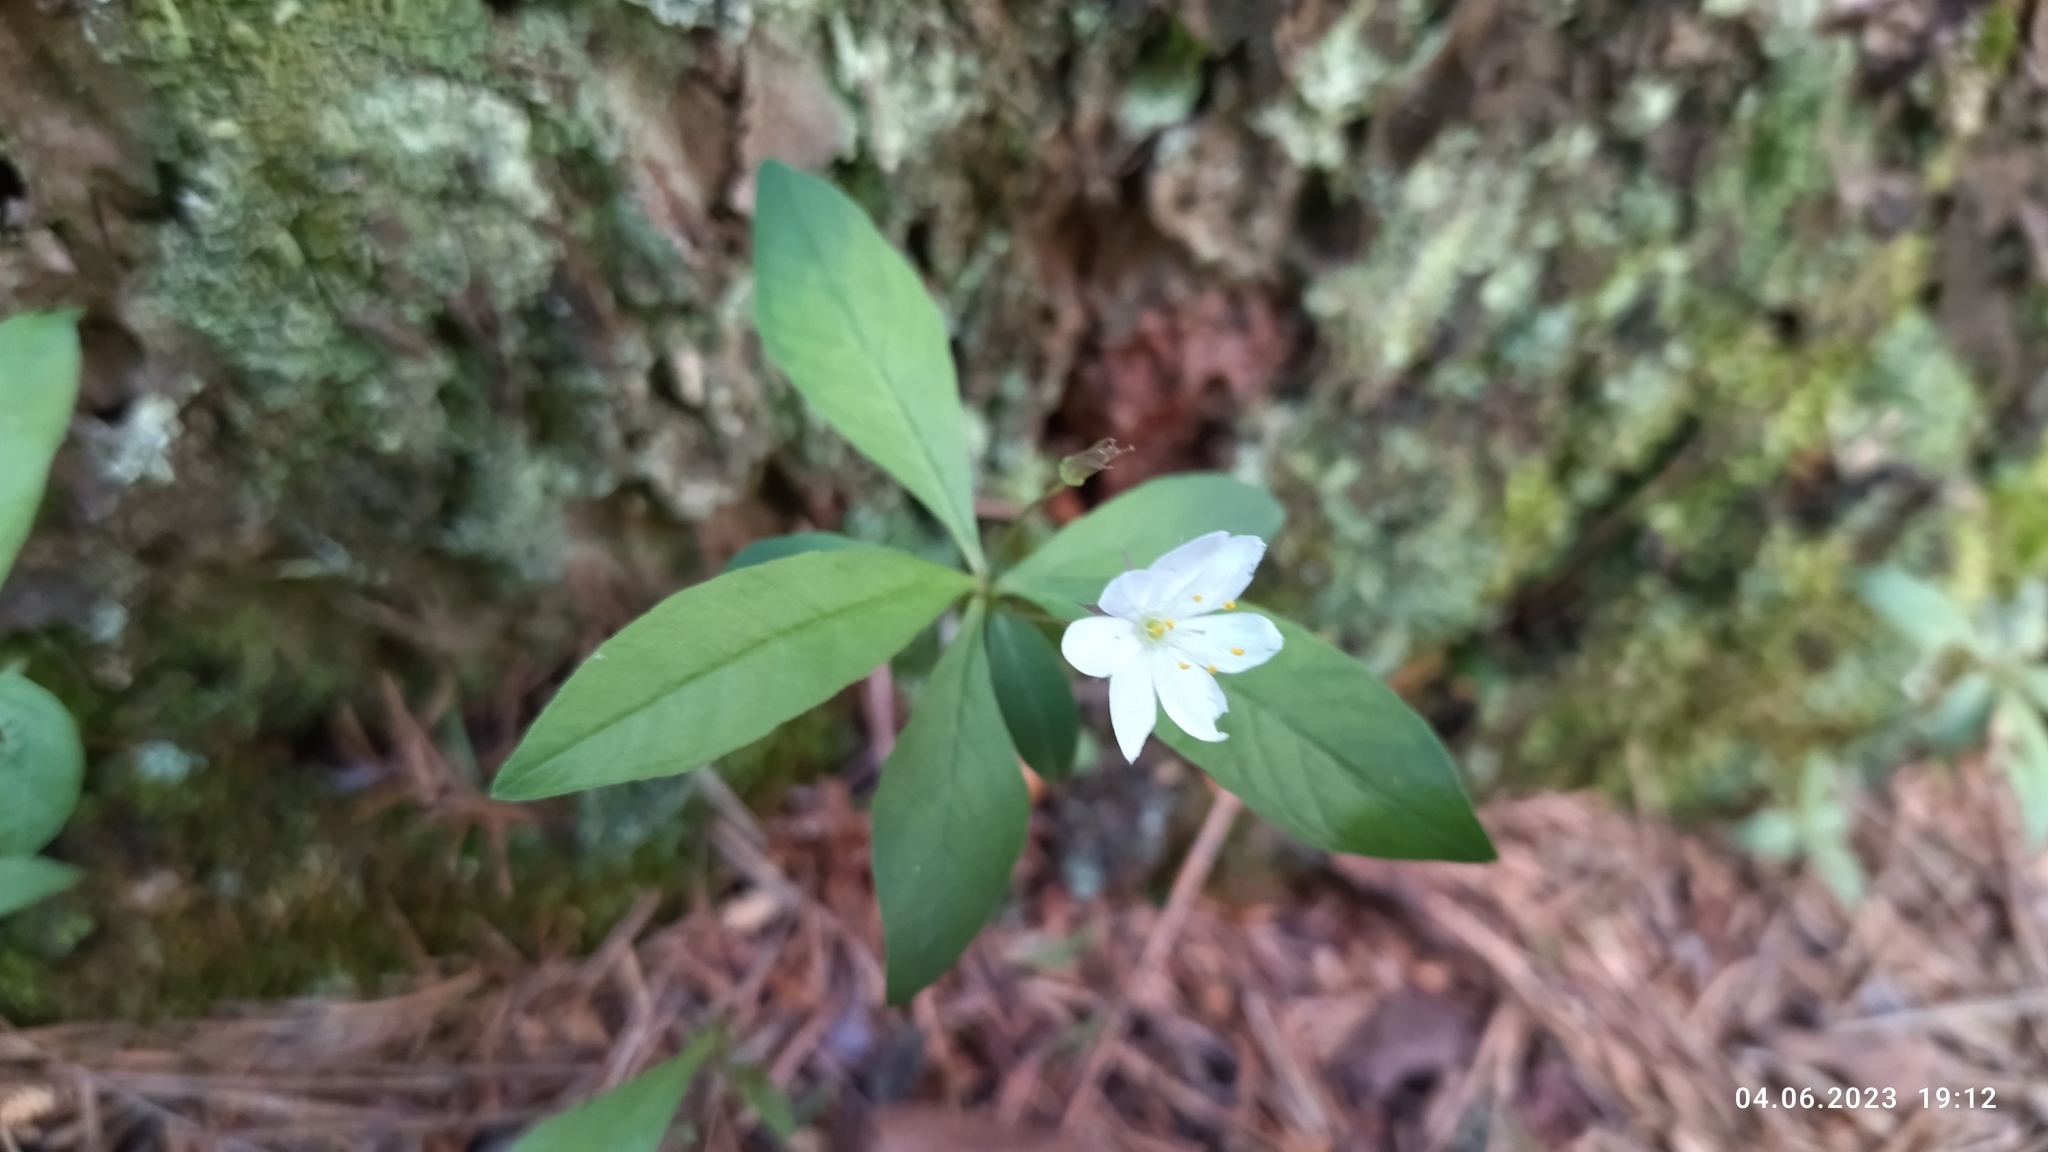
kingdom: Plantae
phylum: Tracheophyta
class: Magnoliopsida
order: Ericales
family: Primulaceae
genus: Lysimachia
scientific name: Lysimachia europaea
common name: Arctic starflower
